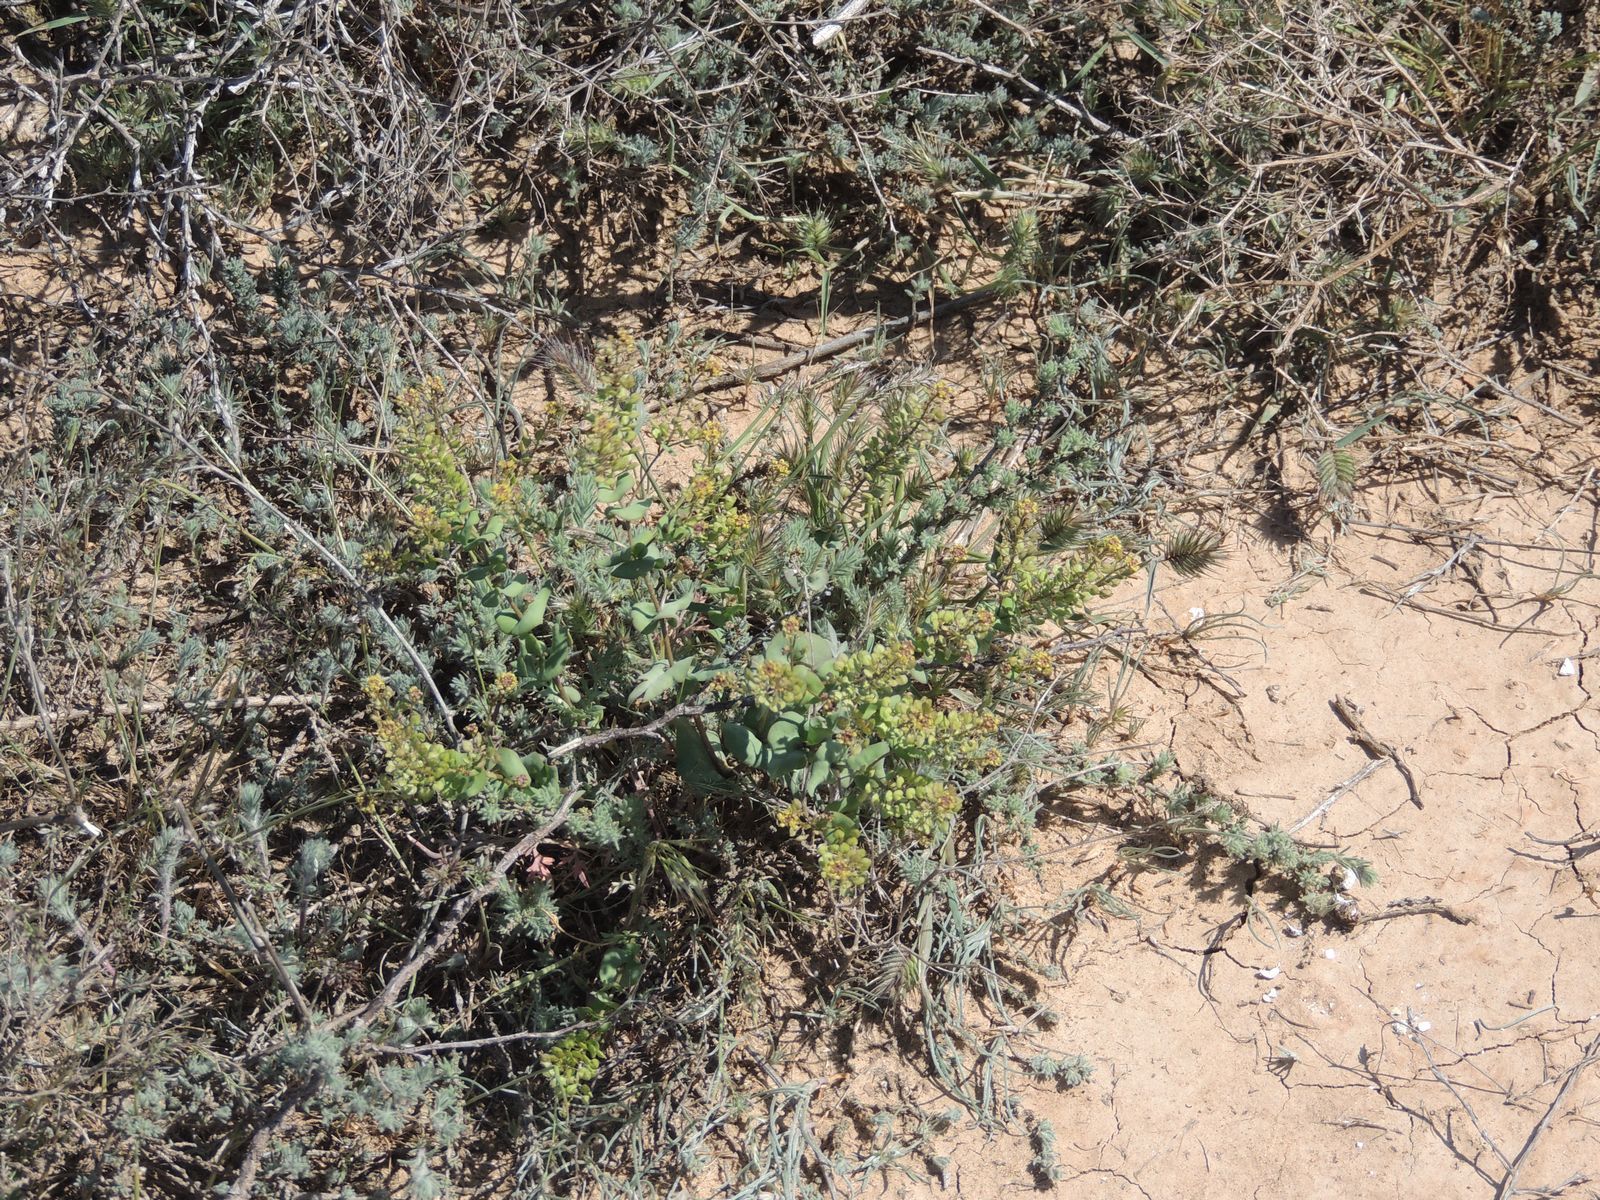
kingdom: Plantae
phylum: Tracheophyta
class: Magnoliopsida
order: Brassicales
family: Brassicaceae
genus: Lepidium
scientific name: Lepidium perfoliatum
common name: Perfoliate pepperwort
